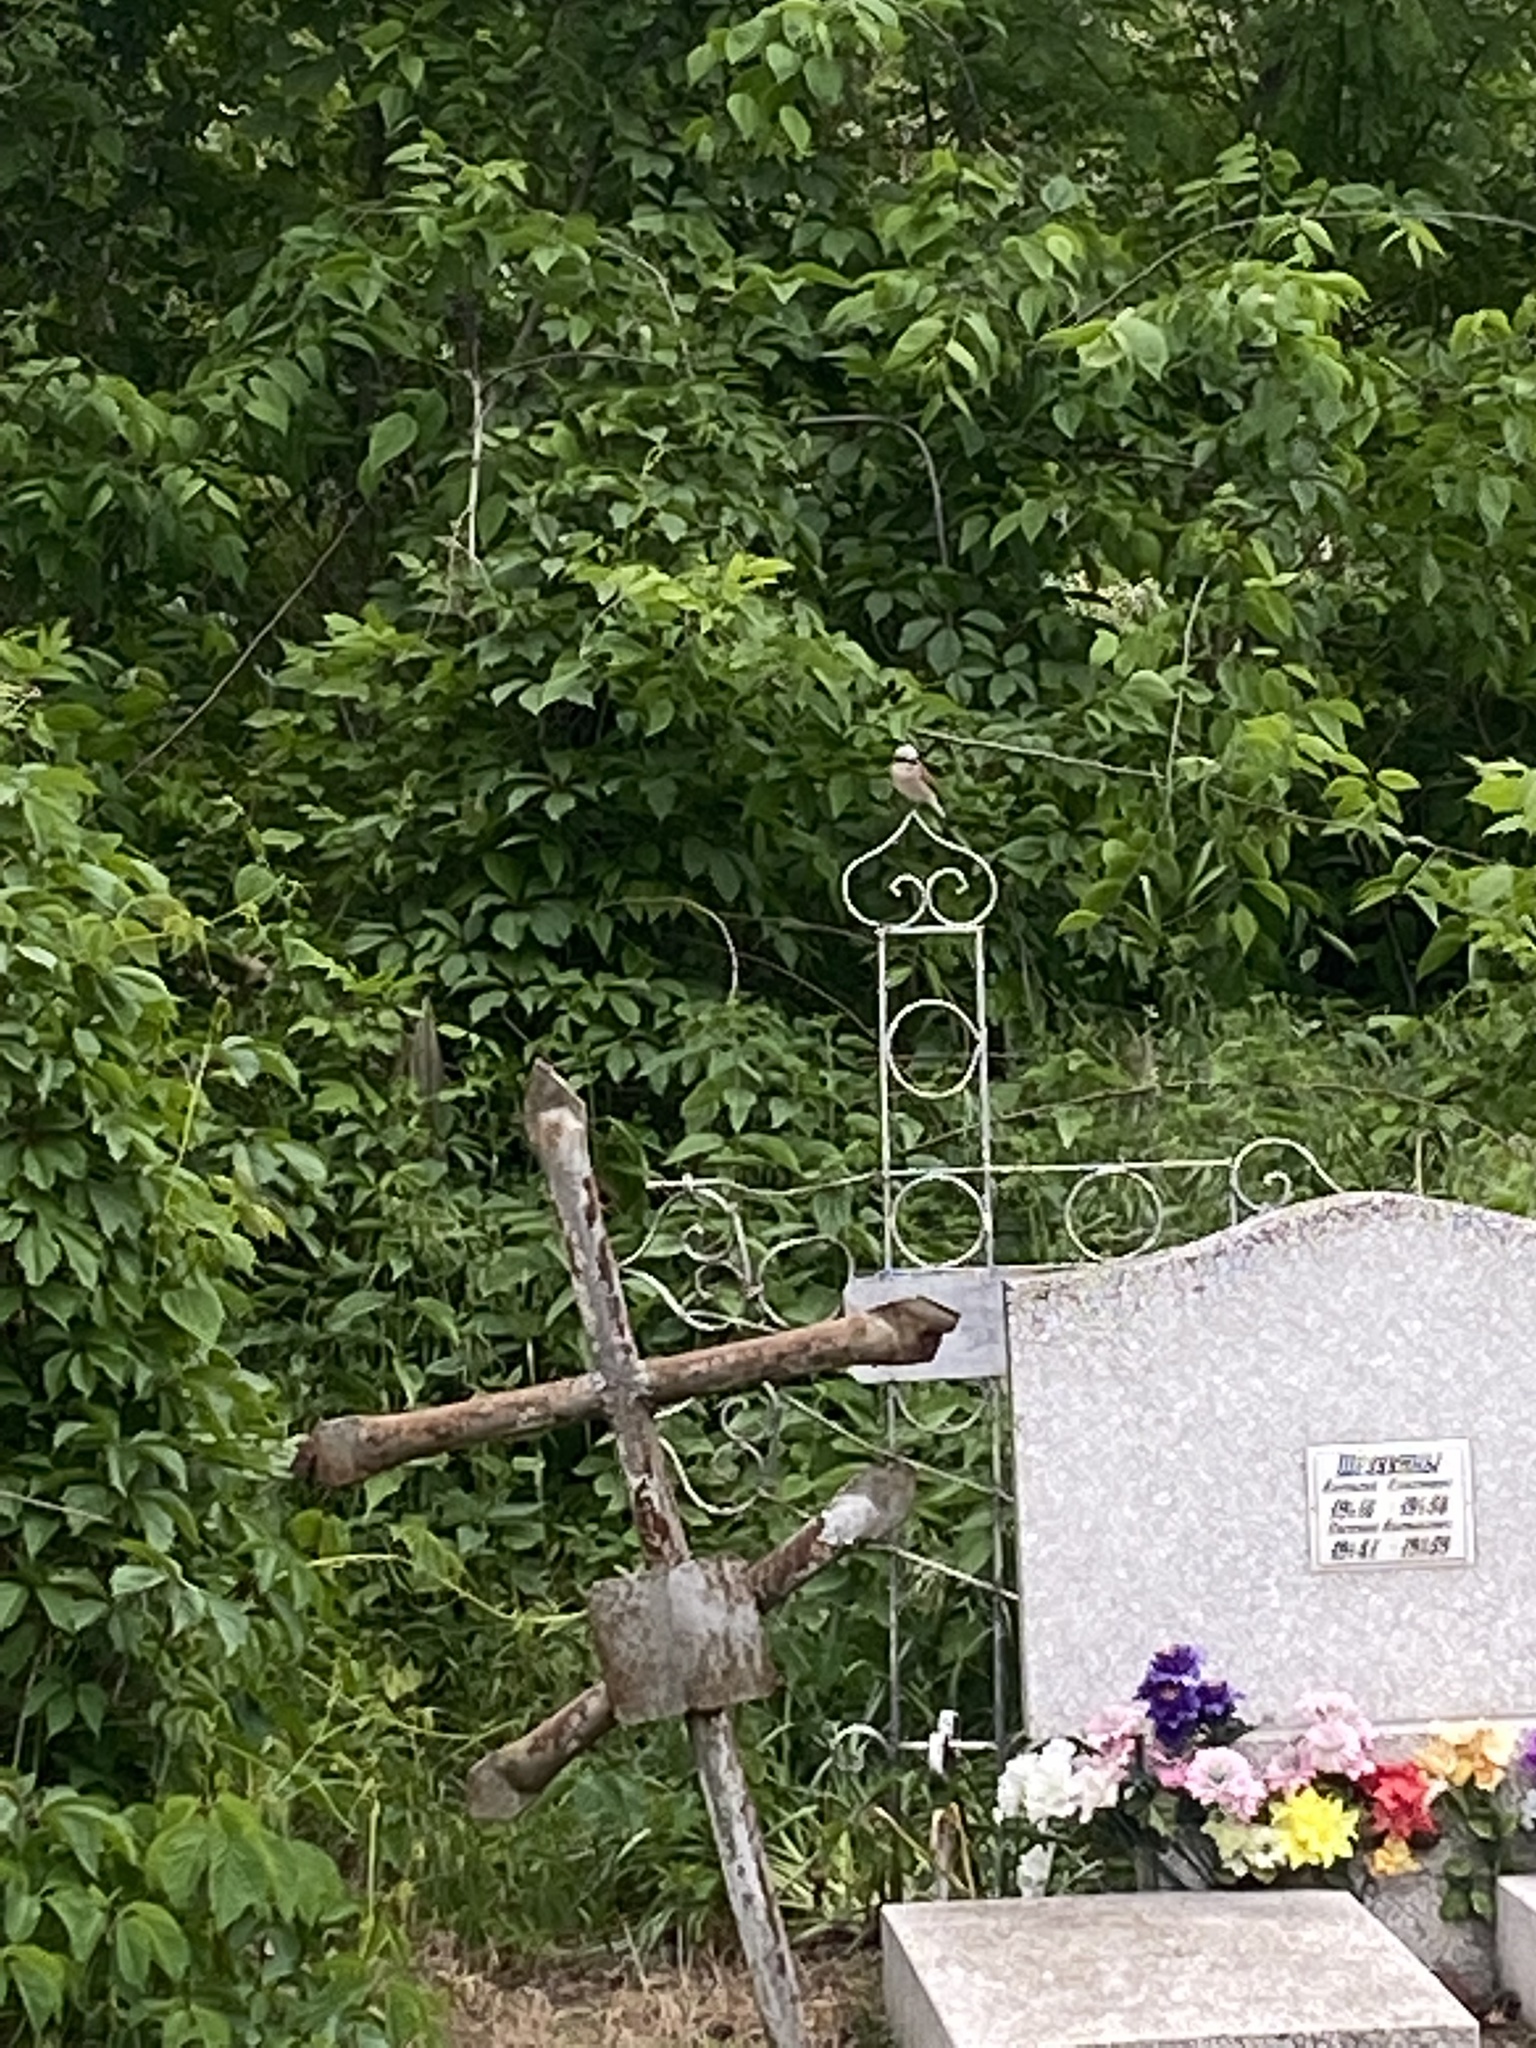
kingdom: Animalia
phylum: Chordata
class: Aves
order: Passeriformes
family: Laniidae
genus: Lanius
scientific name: Lanius collurio
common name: Red-backed shrike
